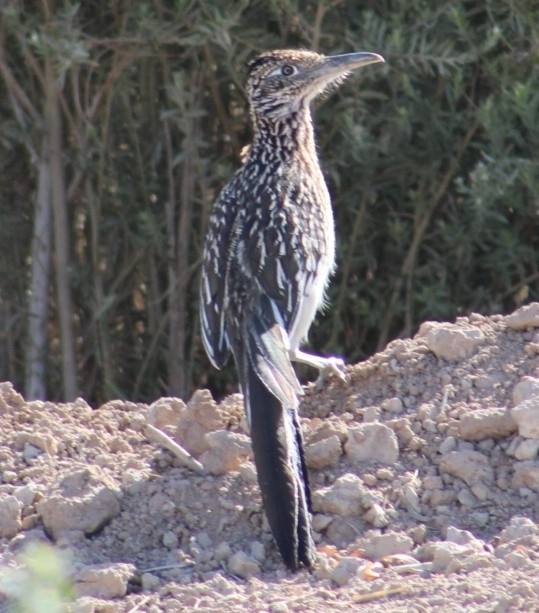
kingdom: Animalia
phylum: Chordata
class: Aves
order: Cuculiformes
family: Cuculidae
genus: Geococcyx
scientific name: Geococcyx californianus
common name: Greater roadrunner
